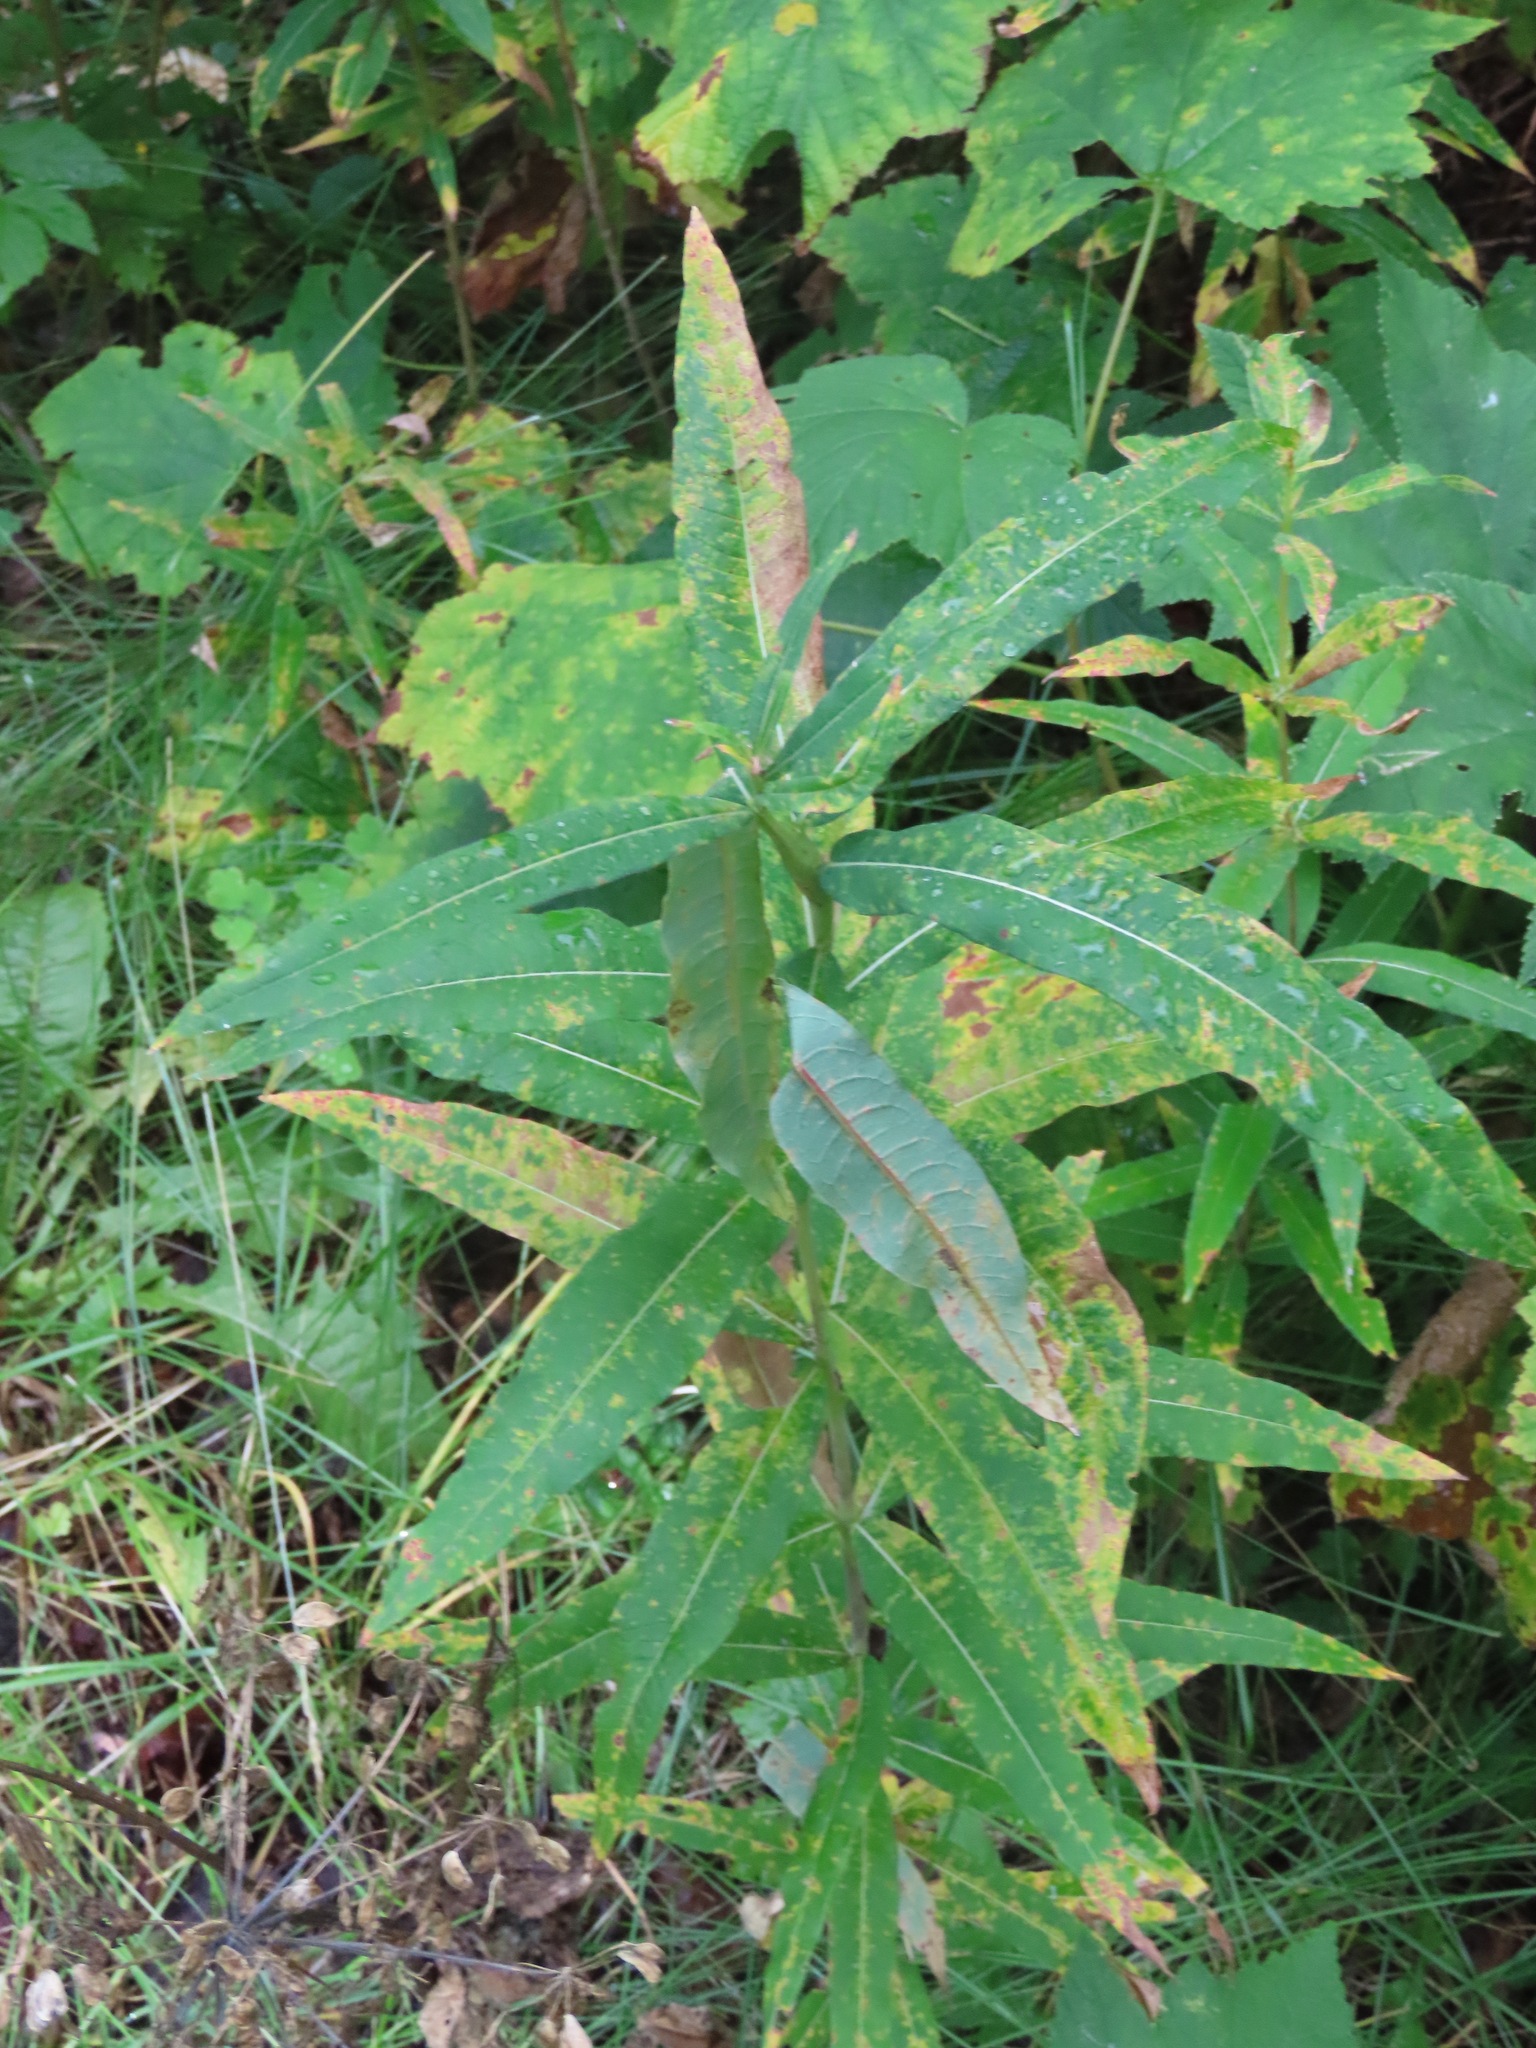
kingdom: Plantae
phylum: Tracheophyta
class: Magnoliopsida
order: Myrtales
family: Onagraceae
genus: Chamaenerion
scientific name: Chamaenerion angustifolium
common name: Fireweed
